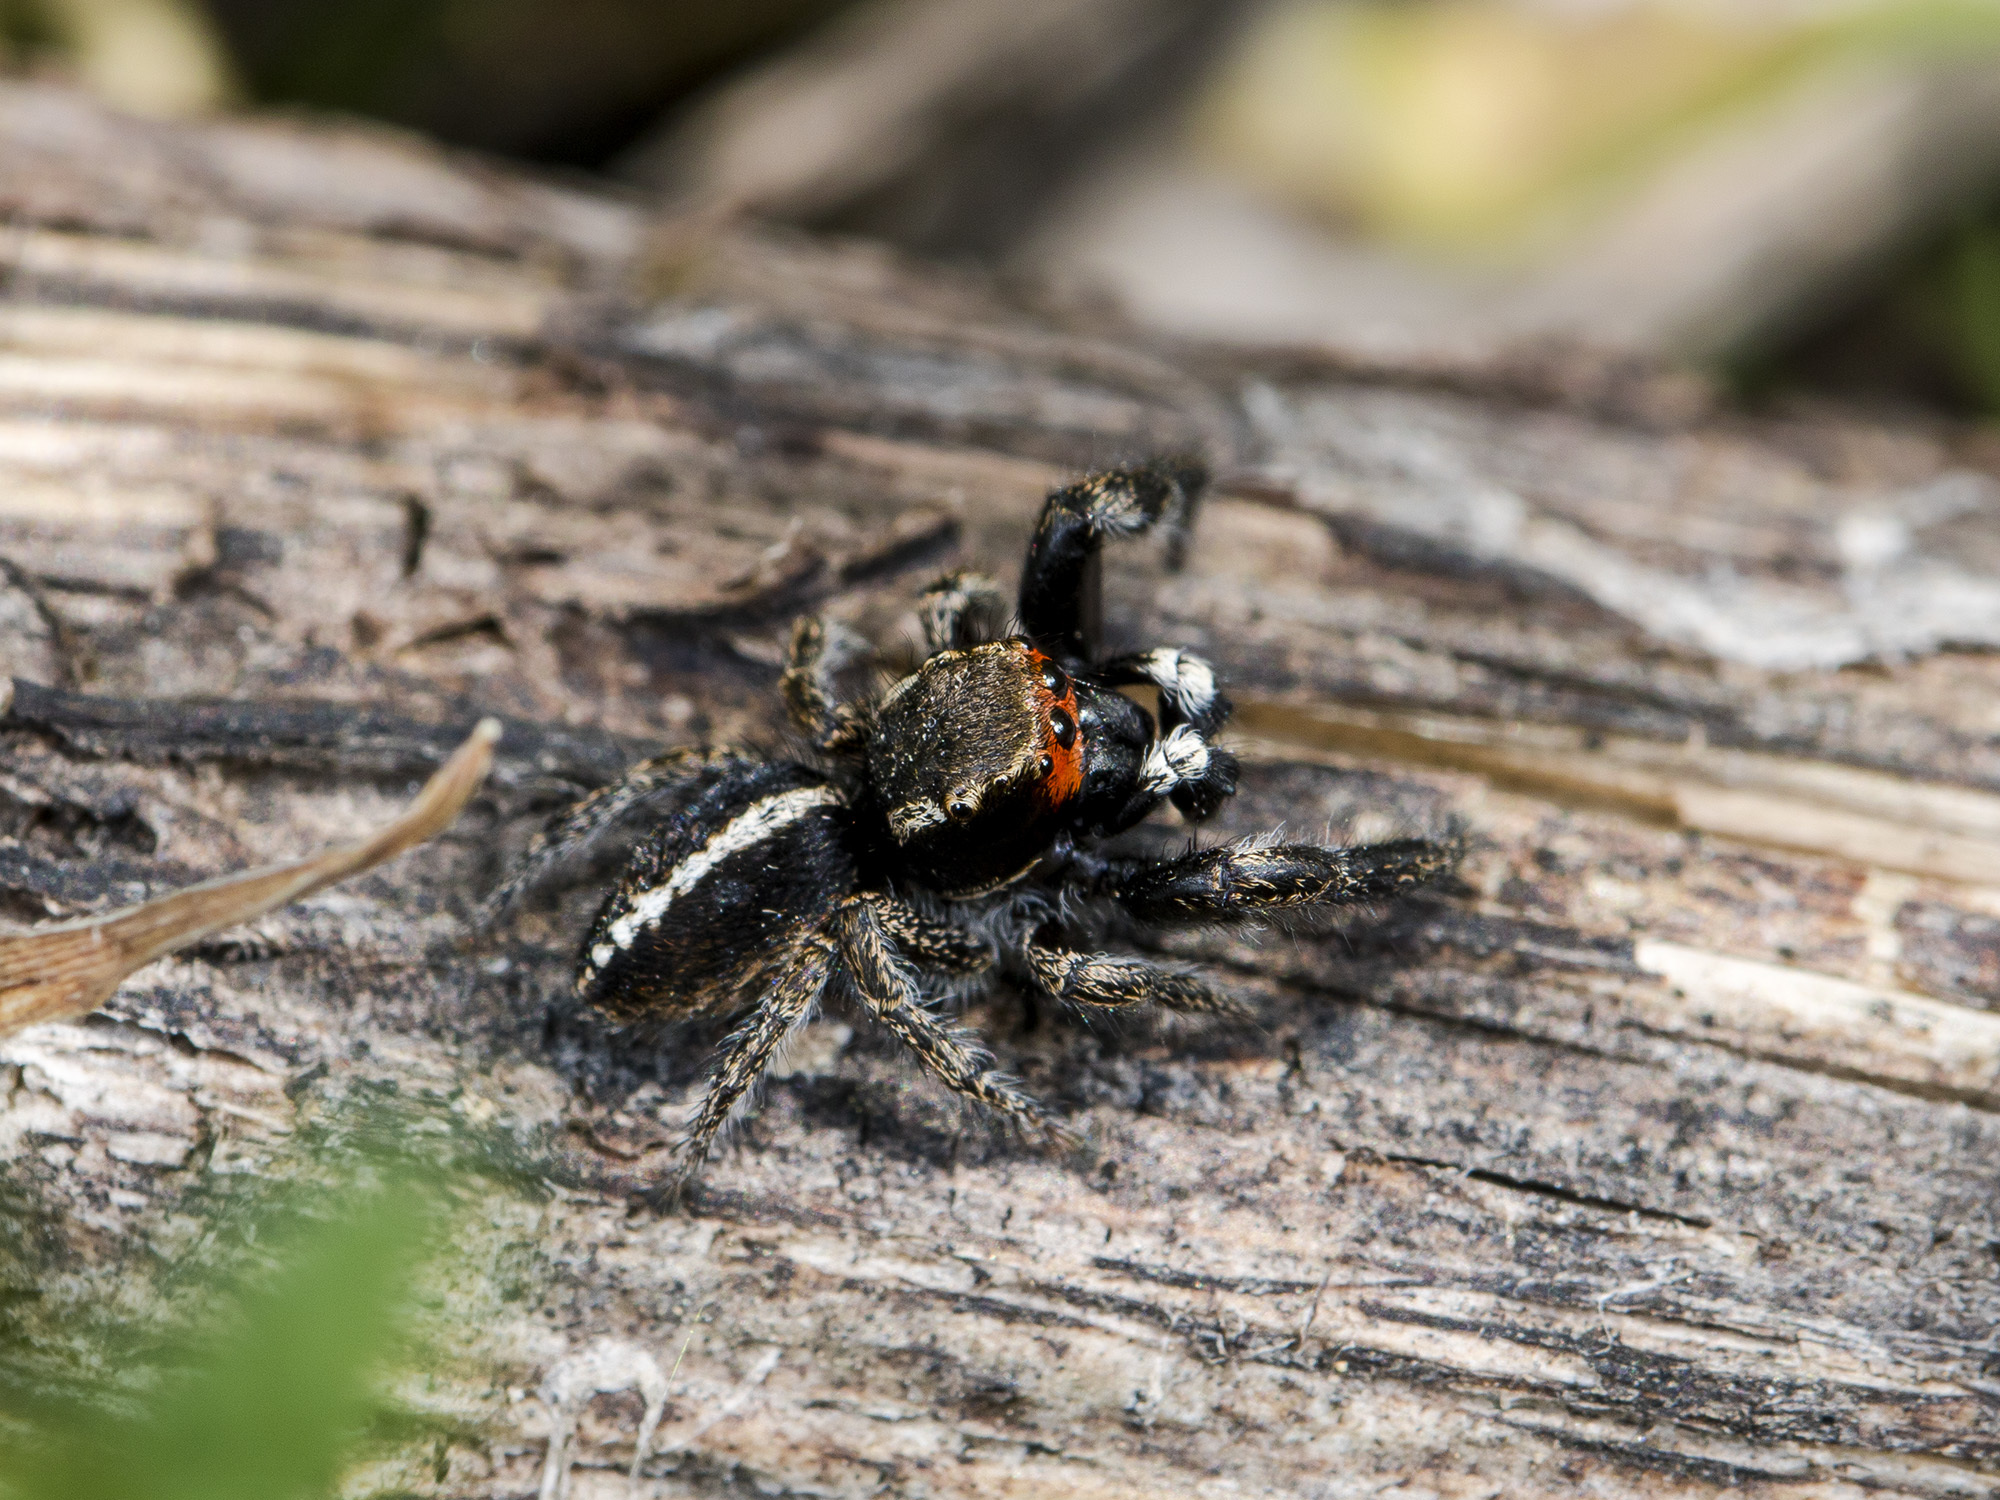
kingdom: Animalia
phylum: Arthropoda
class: Arachnida
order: Araneae
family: Salticidae
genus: Pellenes
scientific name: Pellenes seriatus
